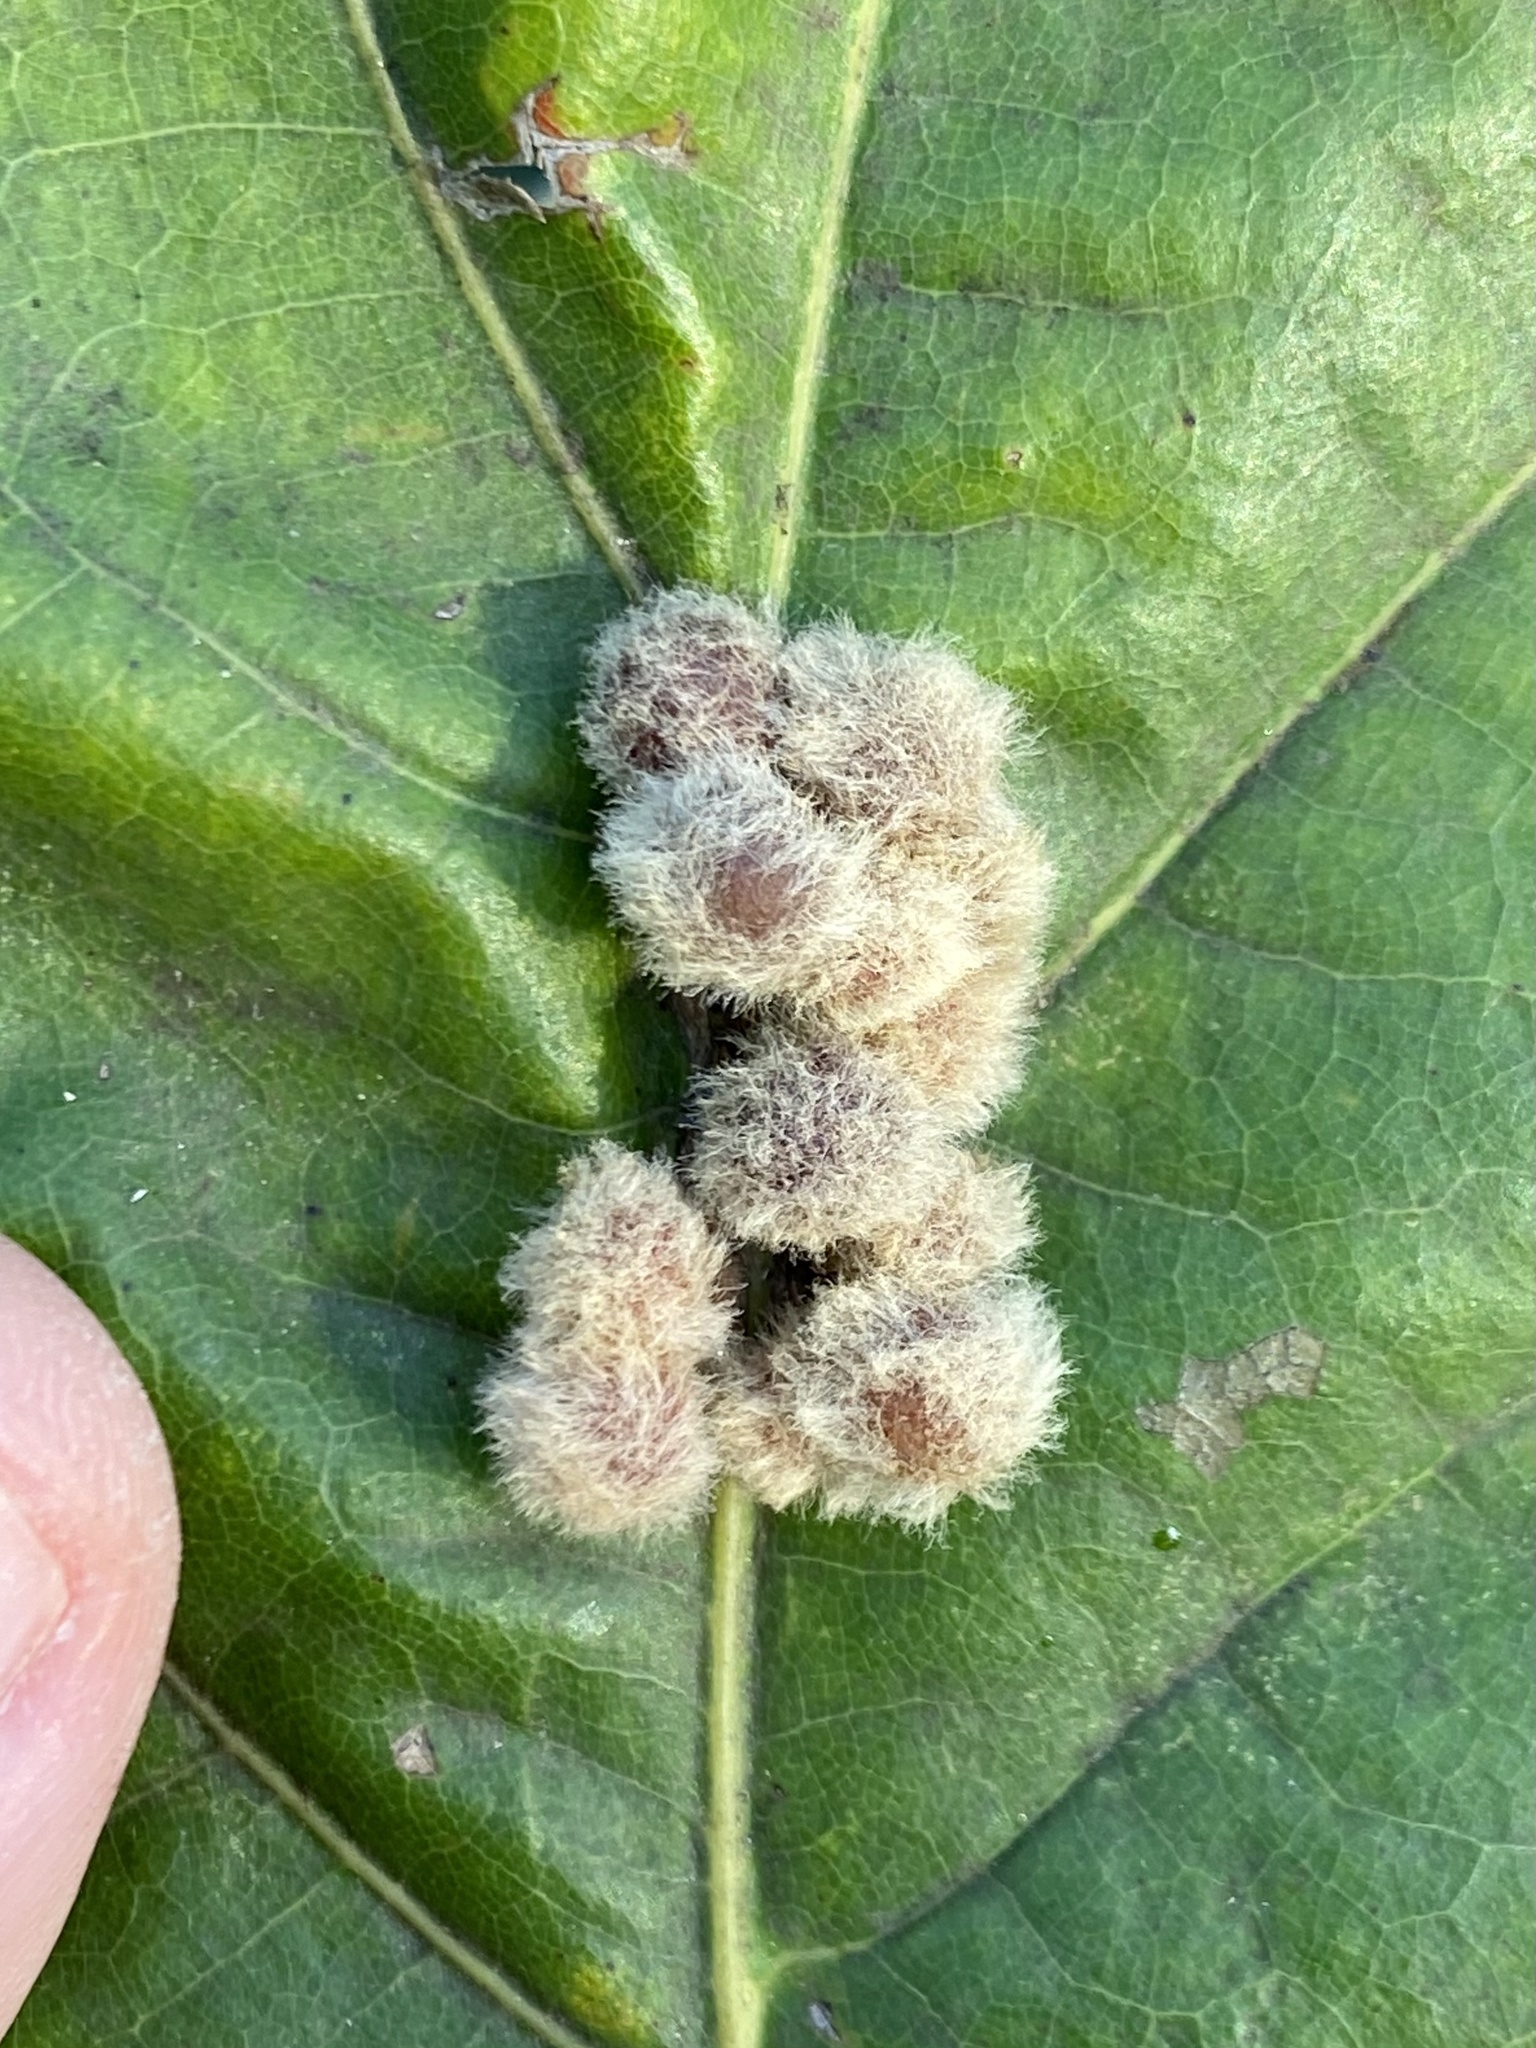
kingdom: Animalia
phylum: Arthropoda
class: Insecta
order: Hymenoptera
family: Cynipidae
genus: Callirhytis
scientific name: Callirhytis
